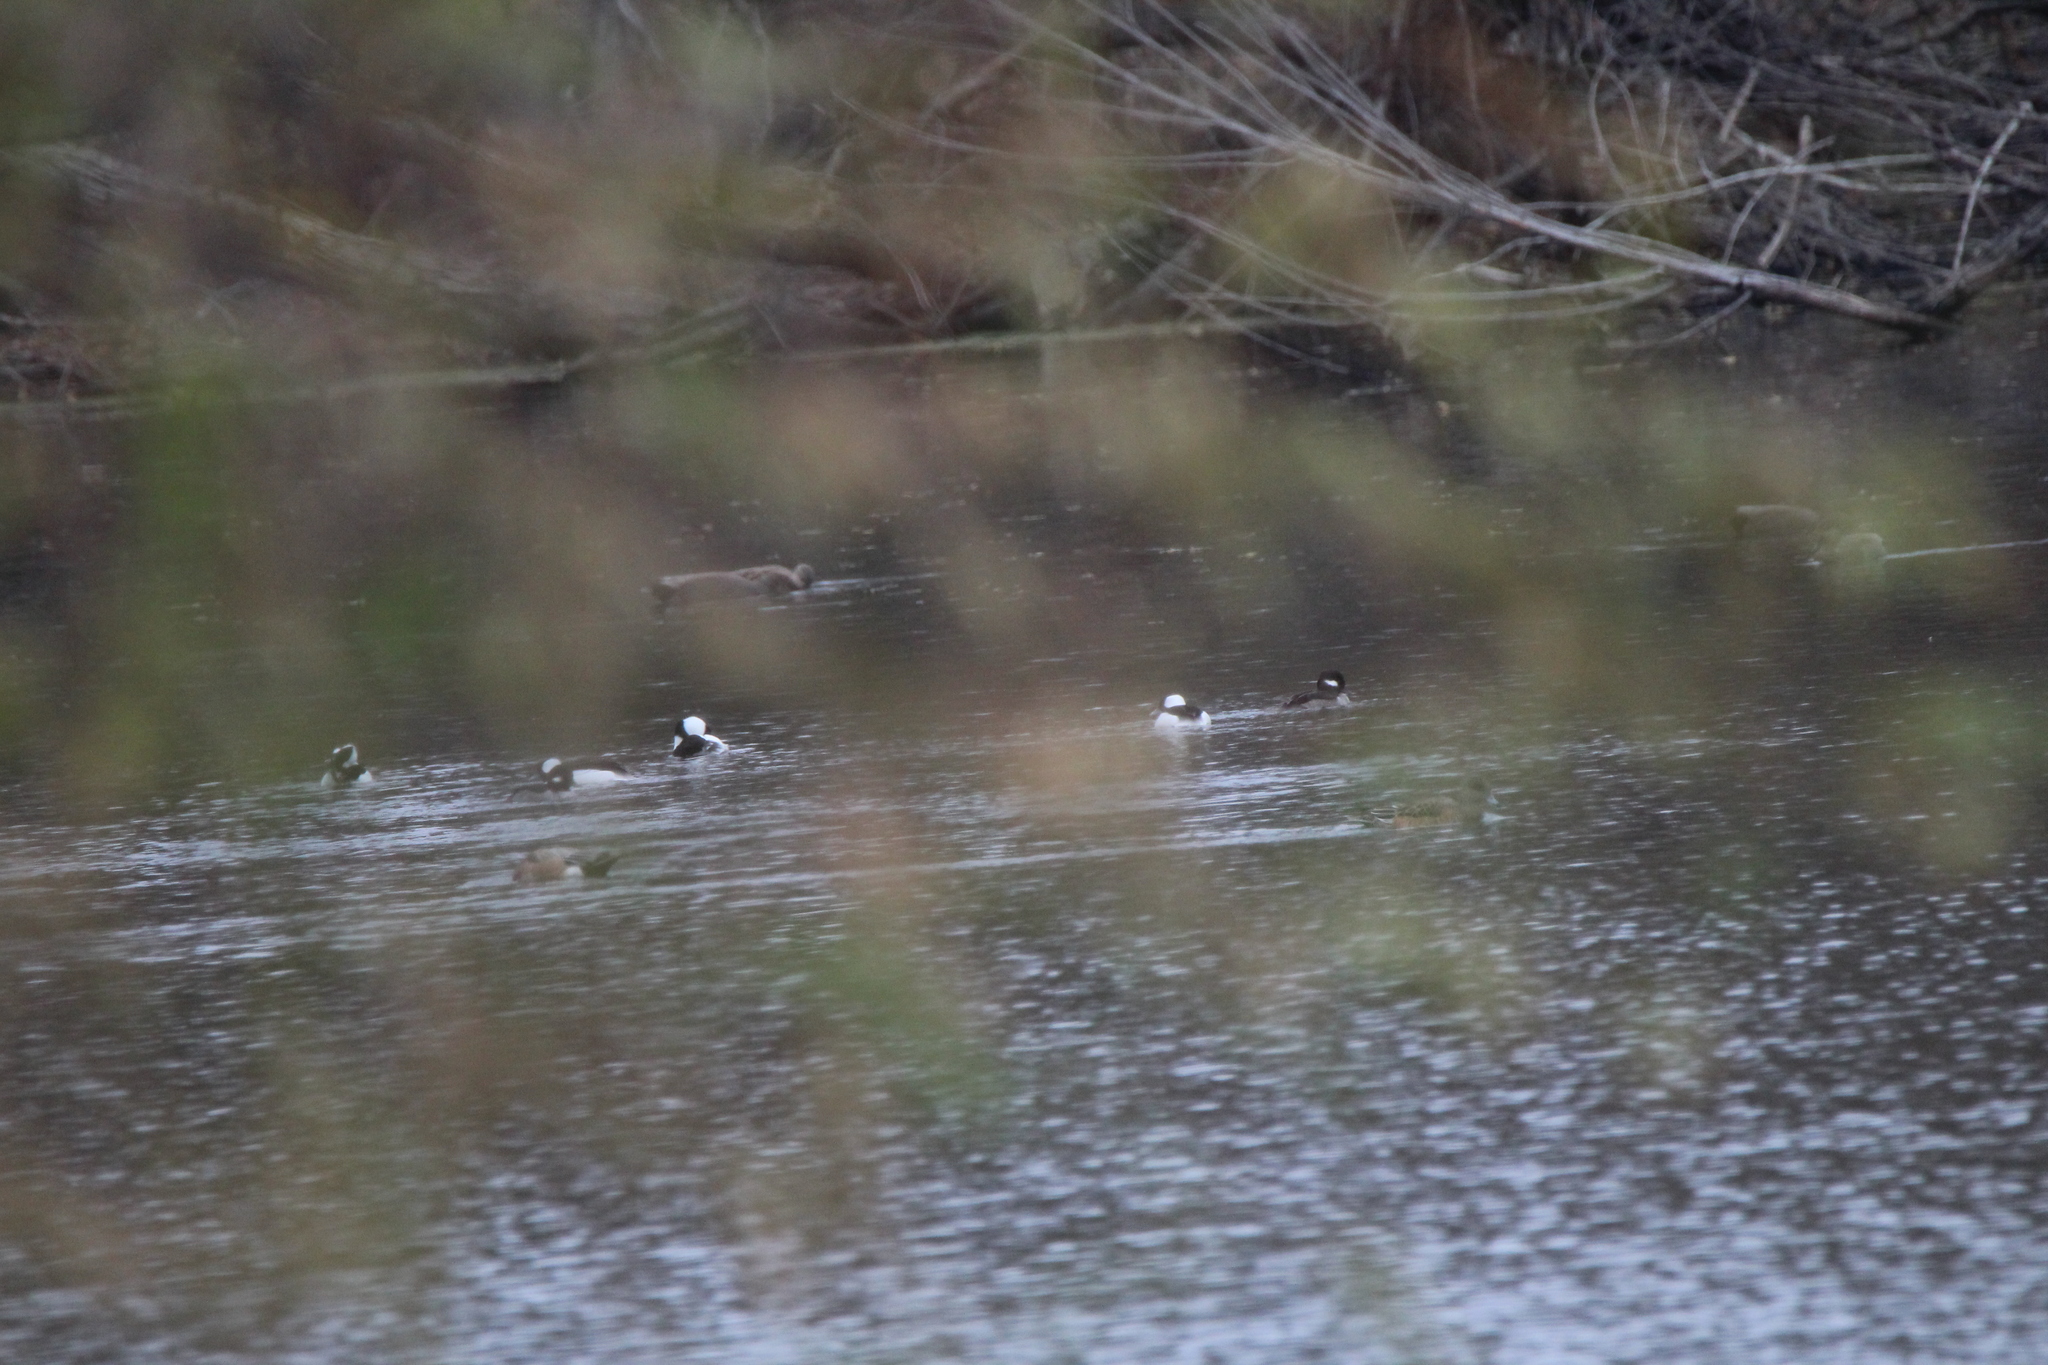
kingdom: Animalia
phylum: Chordata
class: Aves
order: Anseriformes
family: Anatidae
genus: Bucephala
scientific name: Bucephala albeola
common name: Bufflehead
